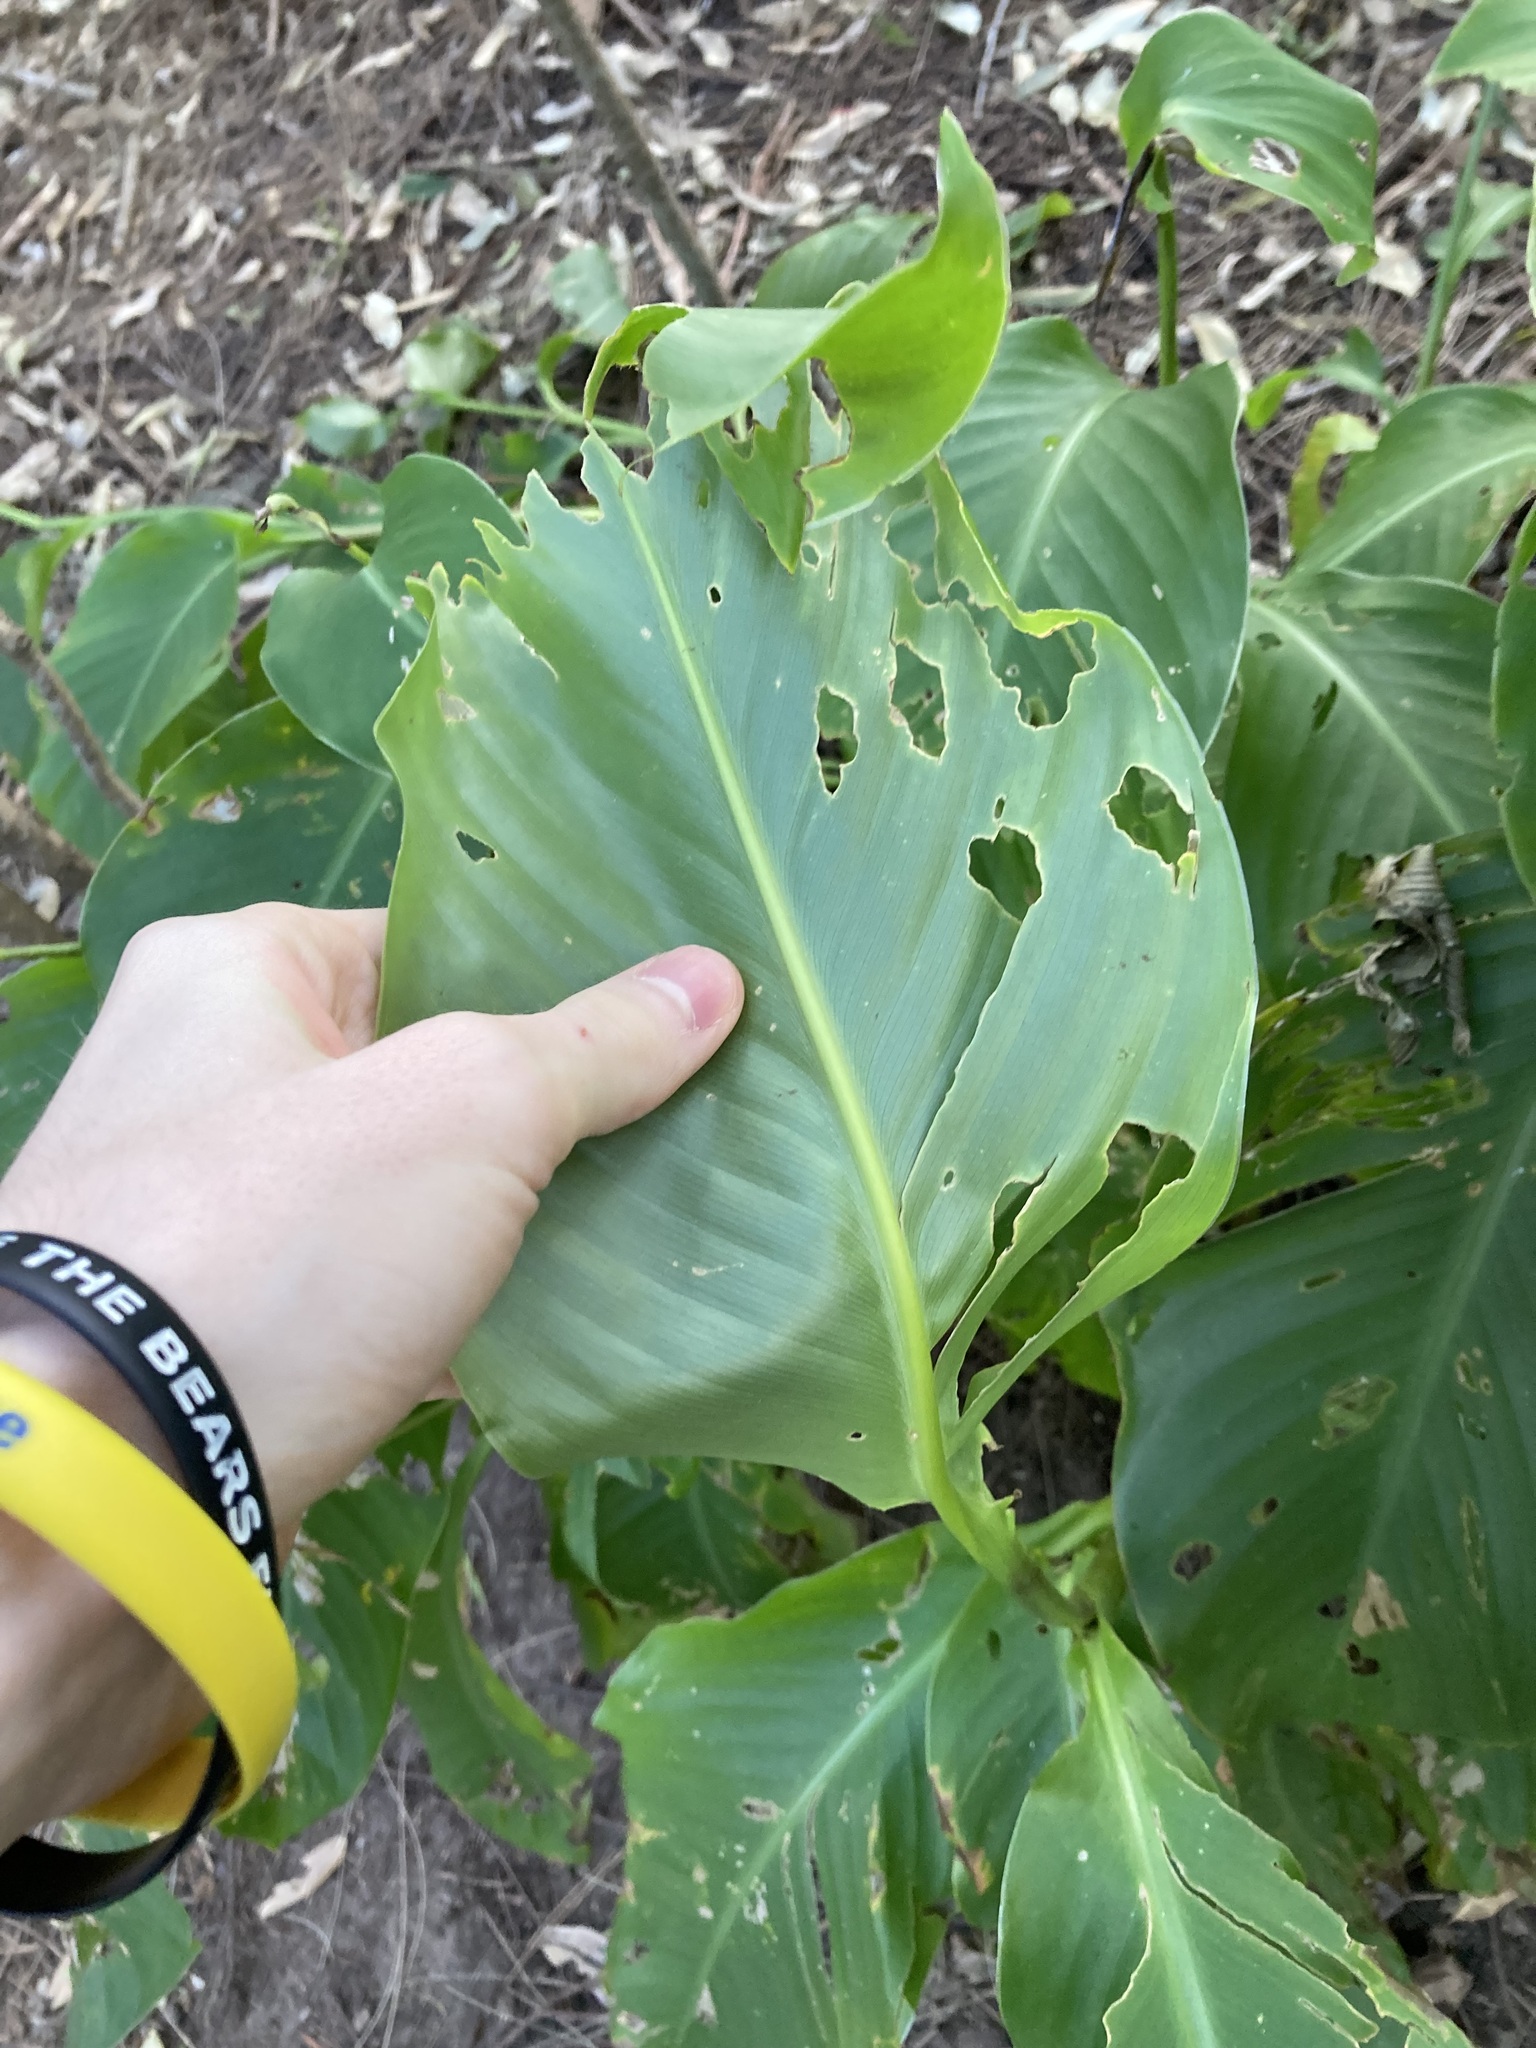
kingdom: Plantae
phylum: Tracheophyta
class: Liliopsida
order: Zingiberales
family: Cannaceae
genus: Canna
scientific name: Canna indica
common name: Indian shot
